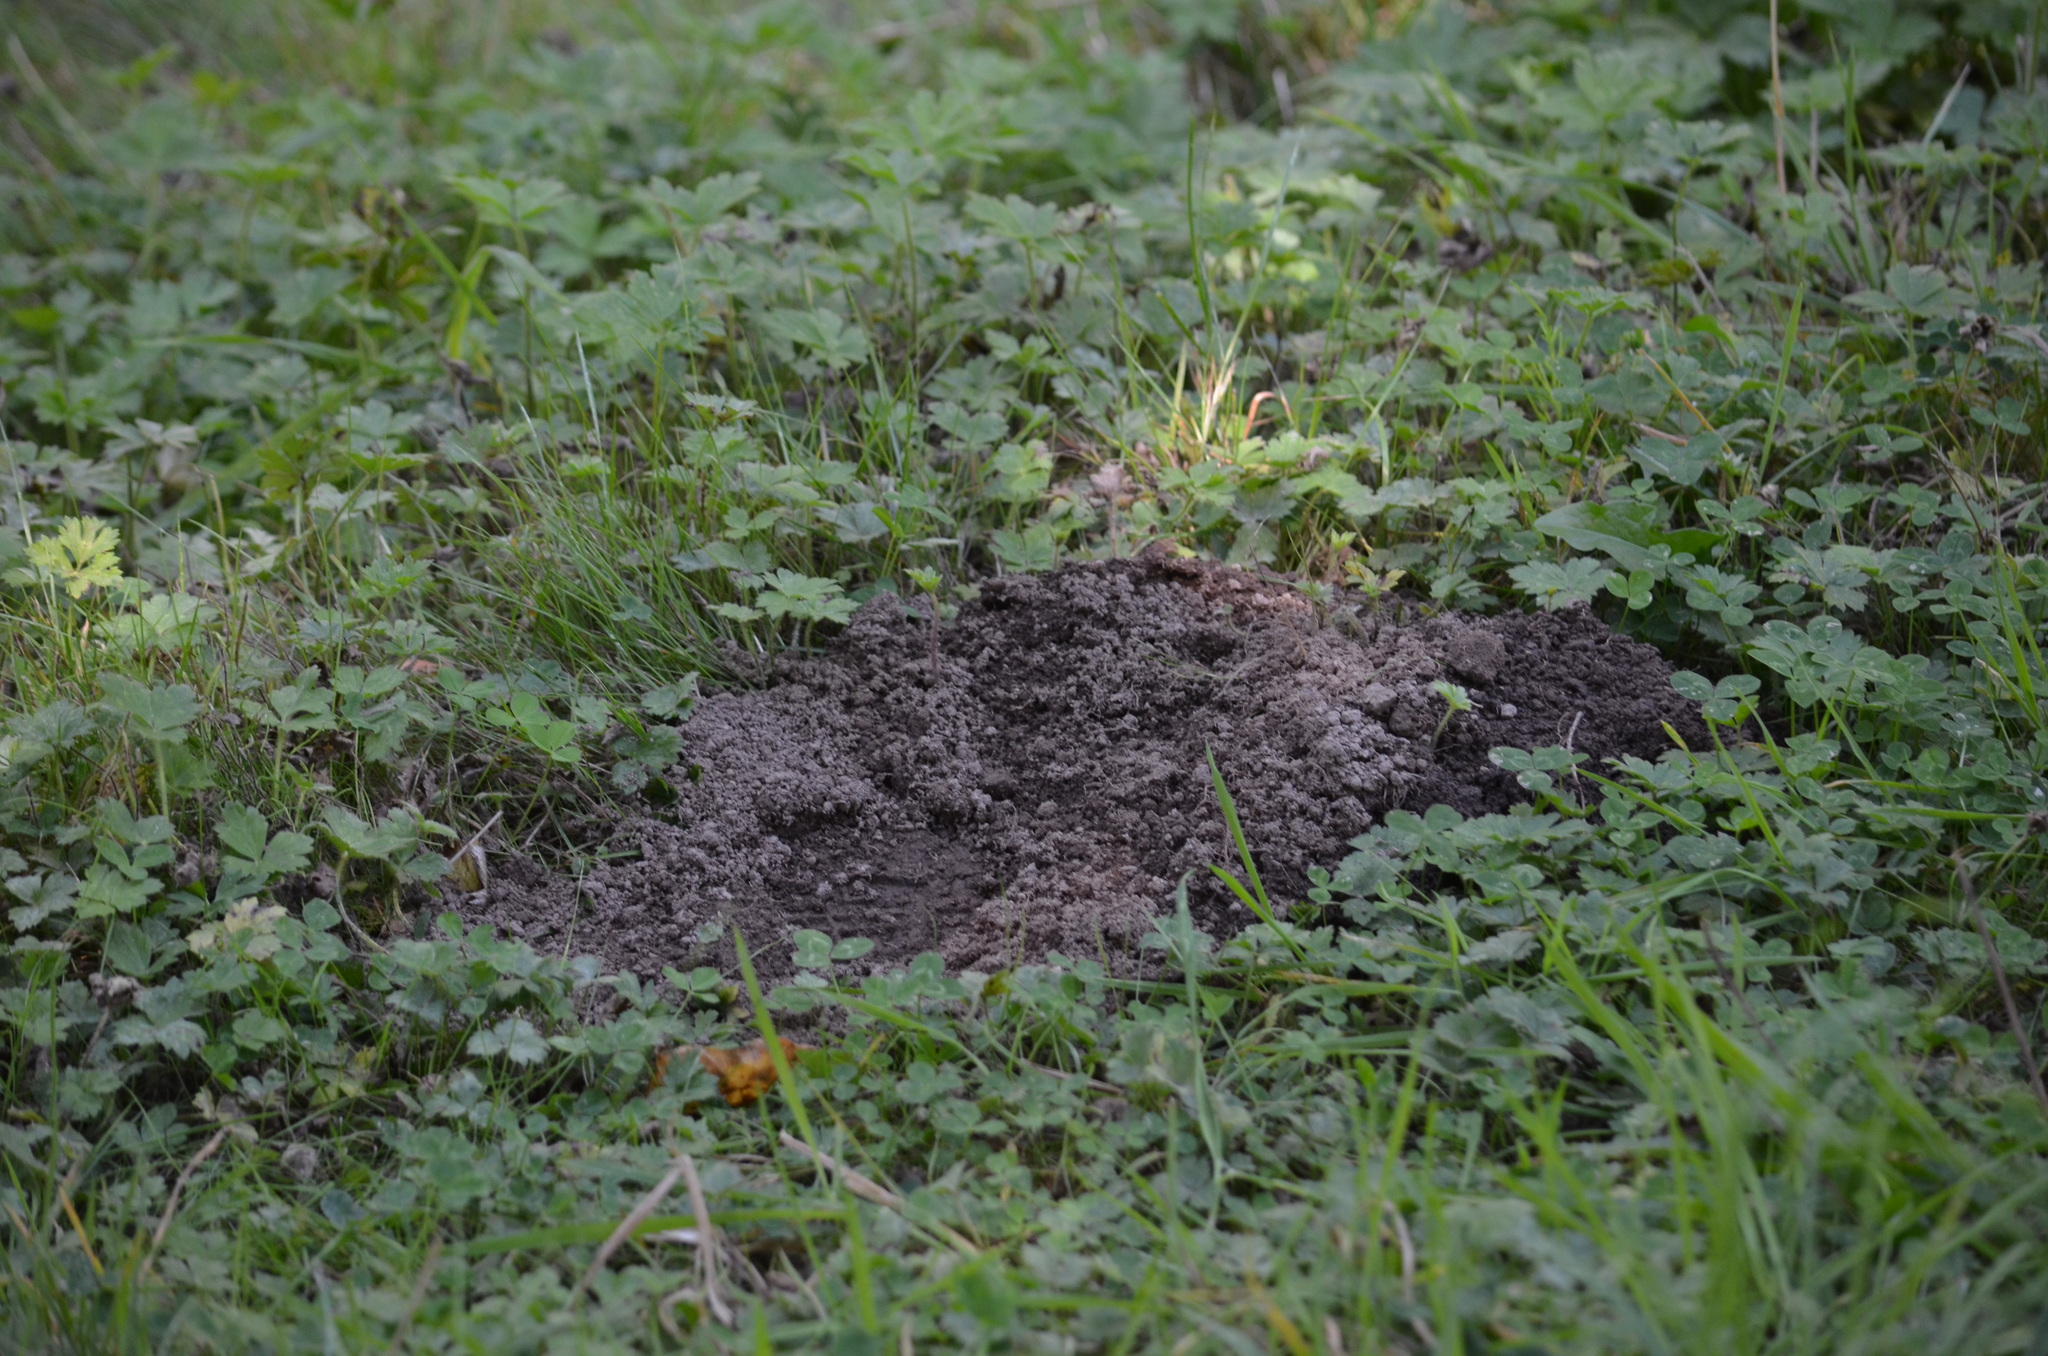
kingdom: Animalia
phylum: Chordata
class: Mammalia
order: Soricomorpha
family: Talpidae
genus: Scapanus
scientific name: Scapanus orarius
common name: Coast mole
